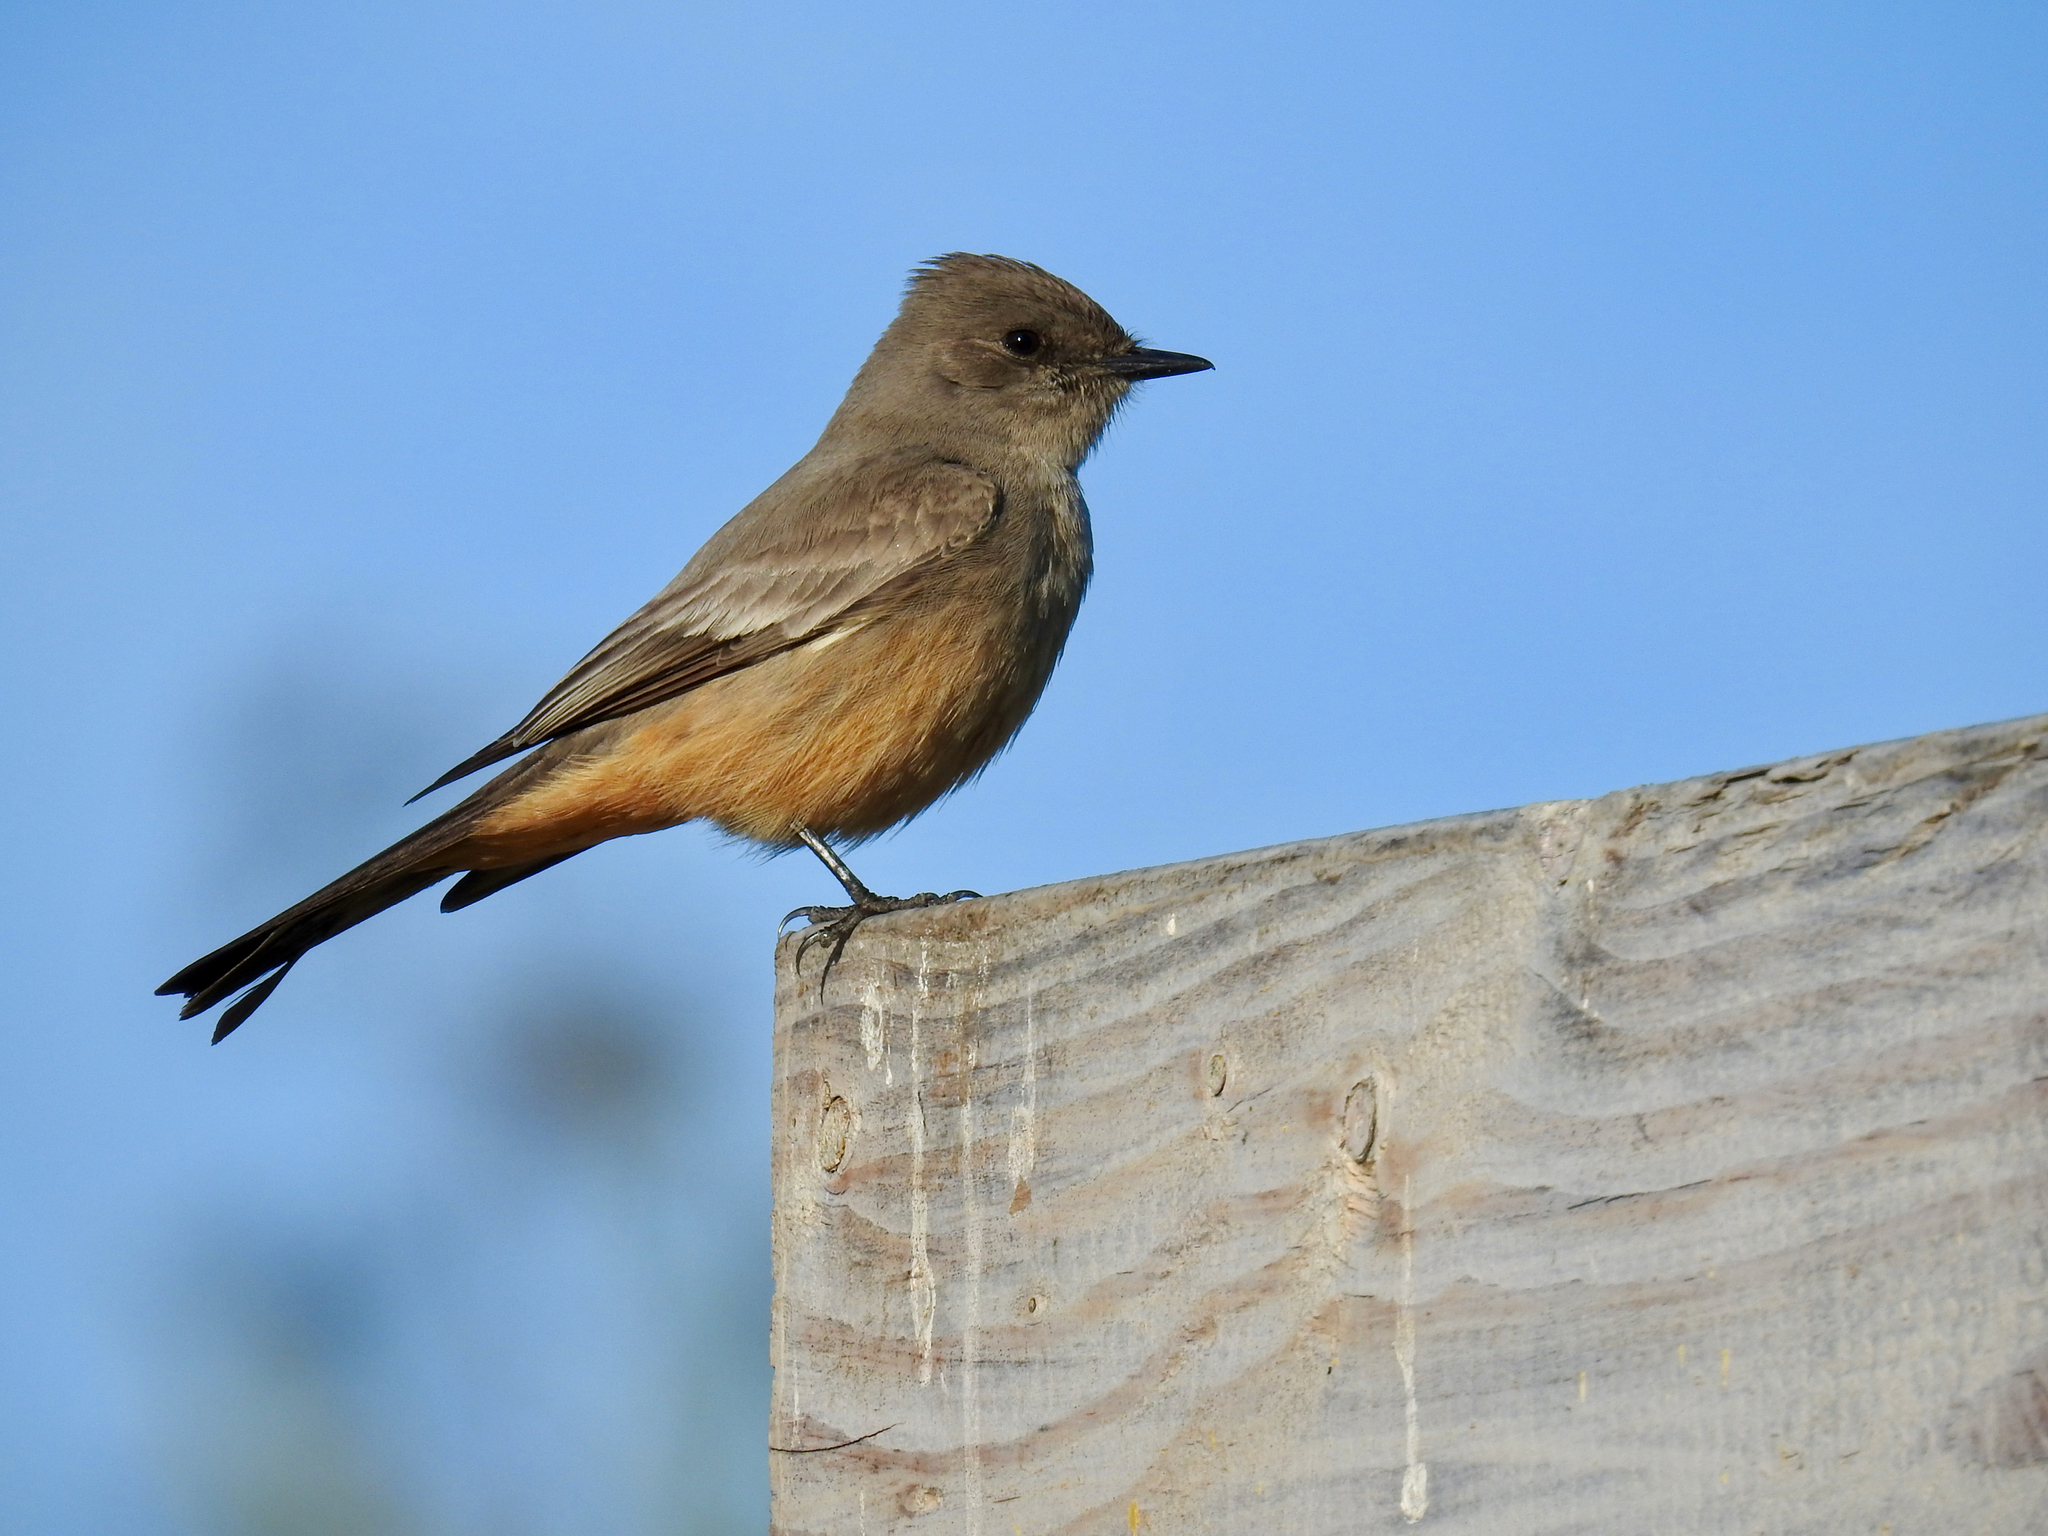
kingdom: Animalia
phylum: Chordata
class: Aves
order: Passeriformes
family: Tyrannidae
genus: Sayornis
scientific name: Sayornis saya
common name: Say's phoebe
